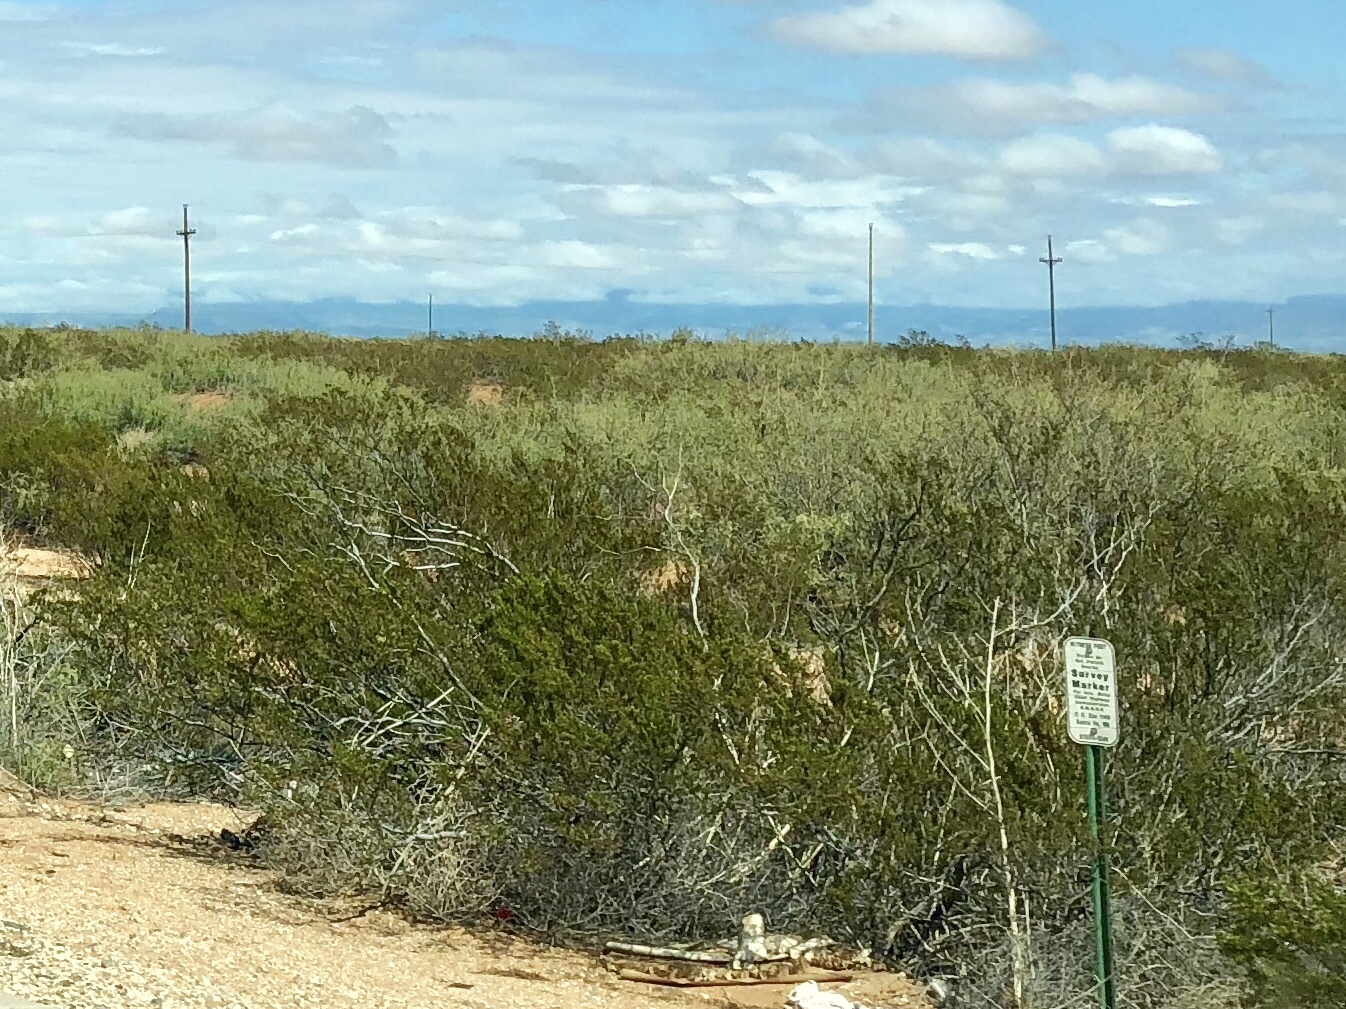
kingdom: Plantae
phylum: Tracheophyta
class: Magnoliopsida
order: Zygophyllales
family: Zygophyllaceae
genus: Larrea
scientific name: Larrea tridentata
